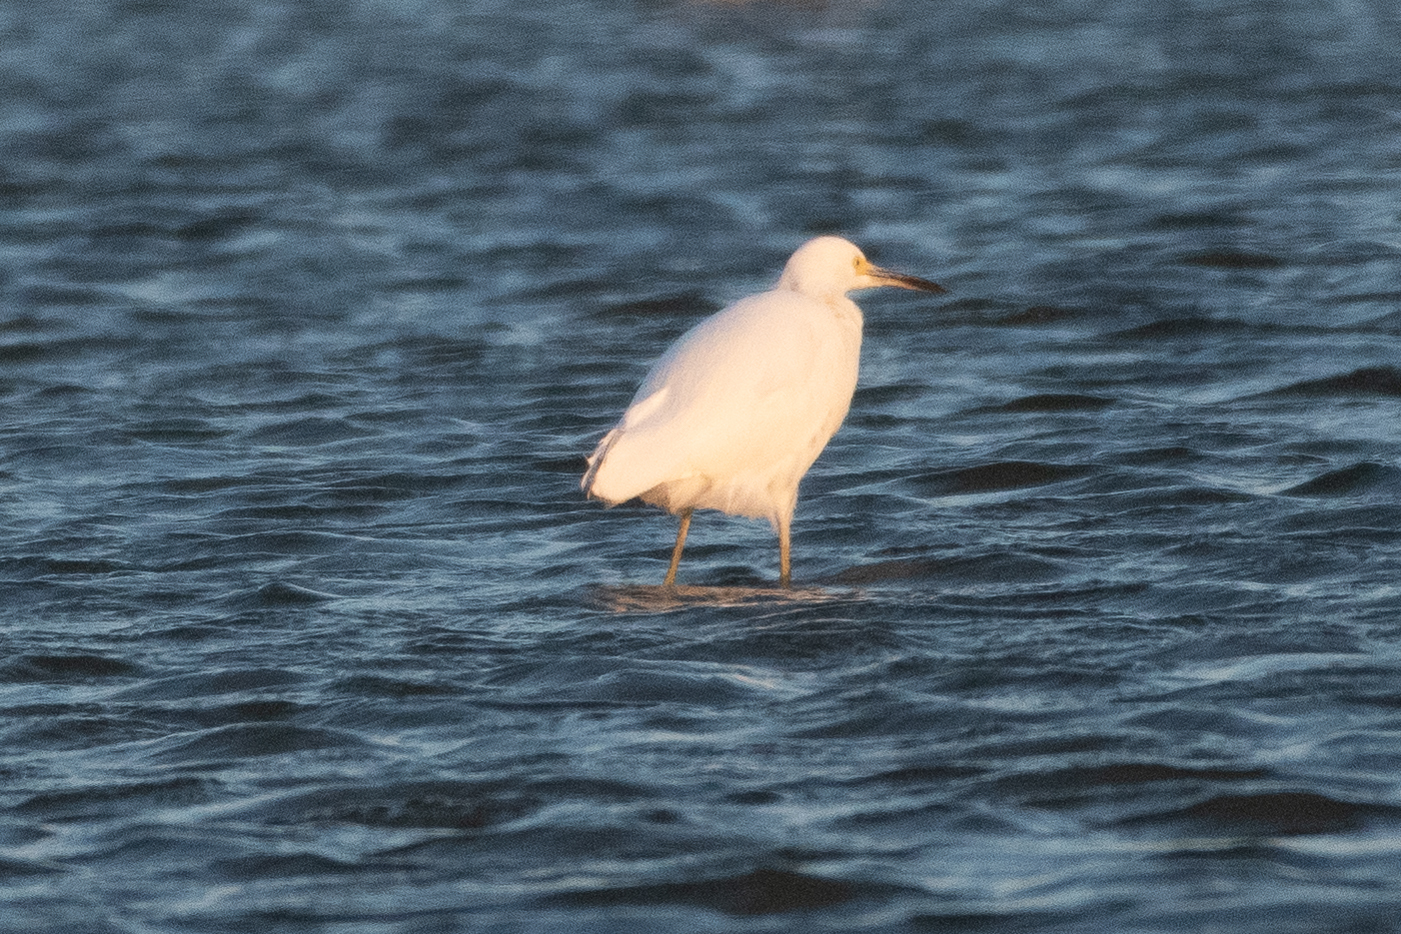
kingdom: Animalia
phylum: Chordata
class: Aves
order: Pelecaniformes
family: Ardeidae
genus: Egretta
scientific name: Egretta thula
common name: Snowy egret
